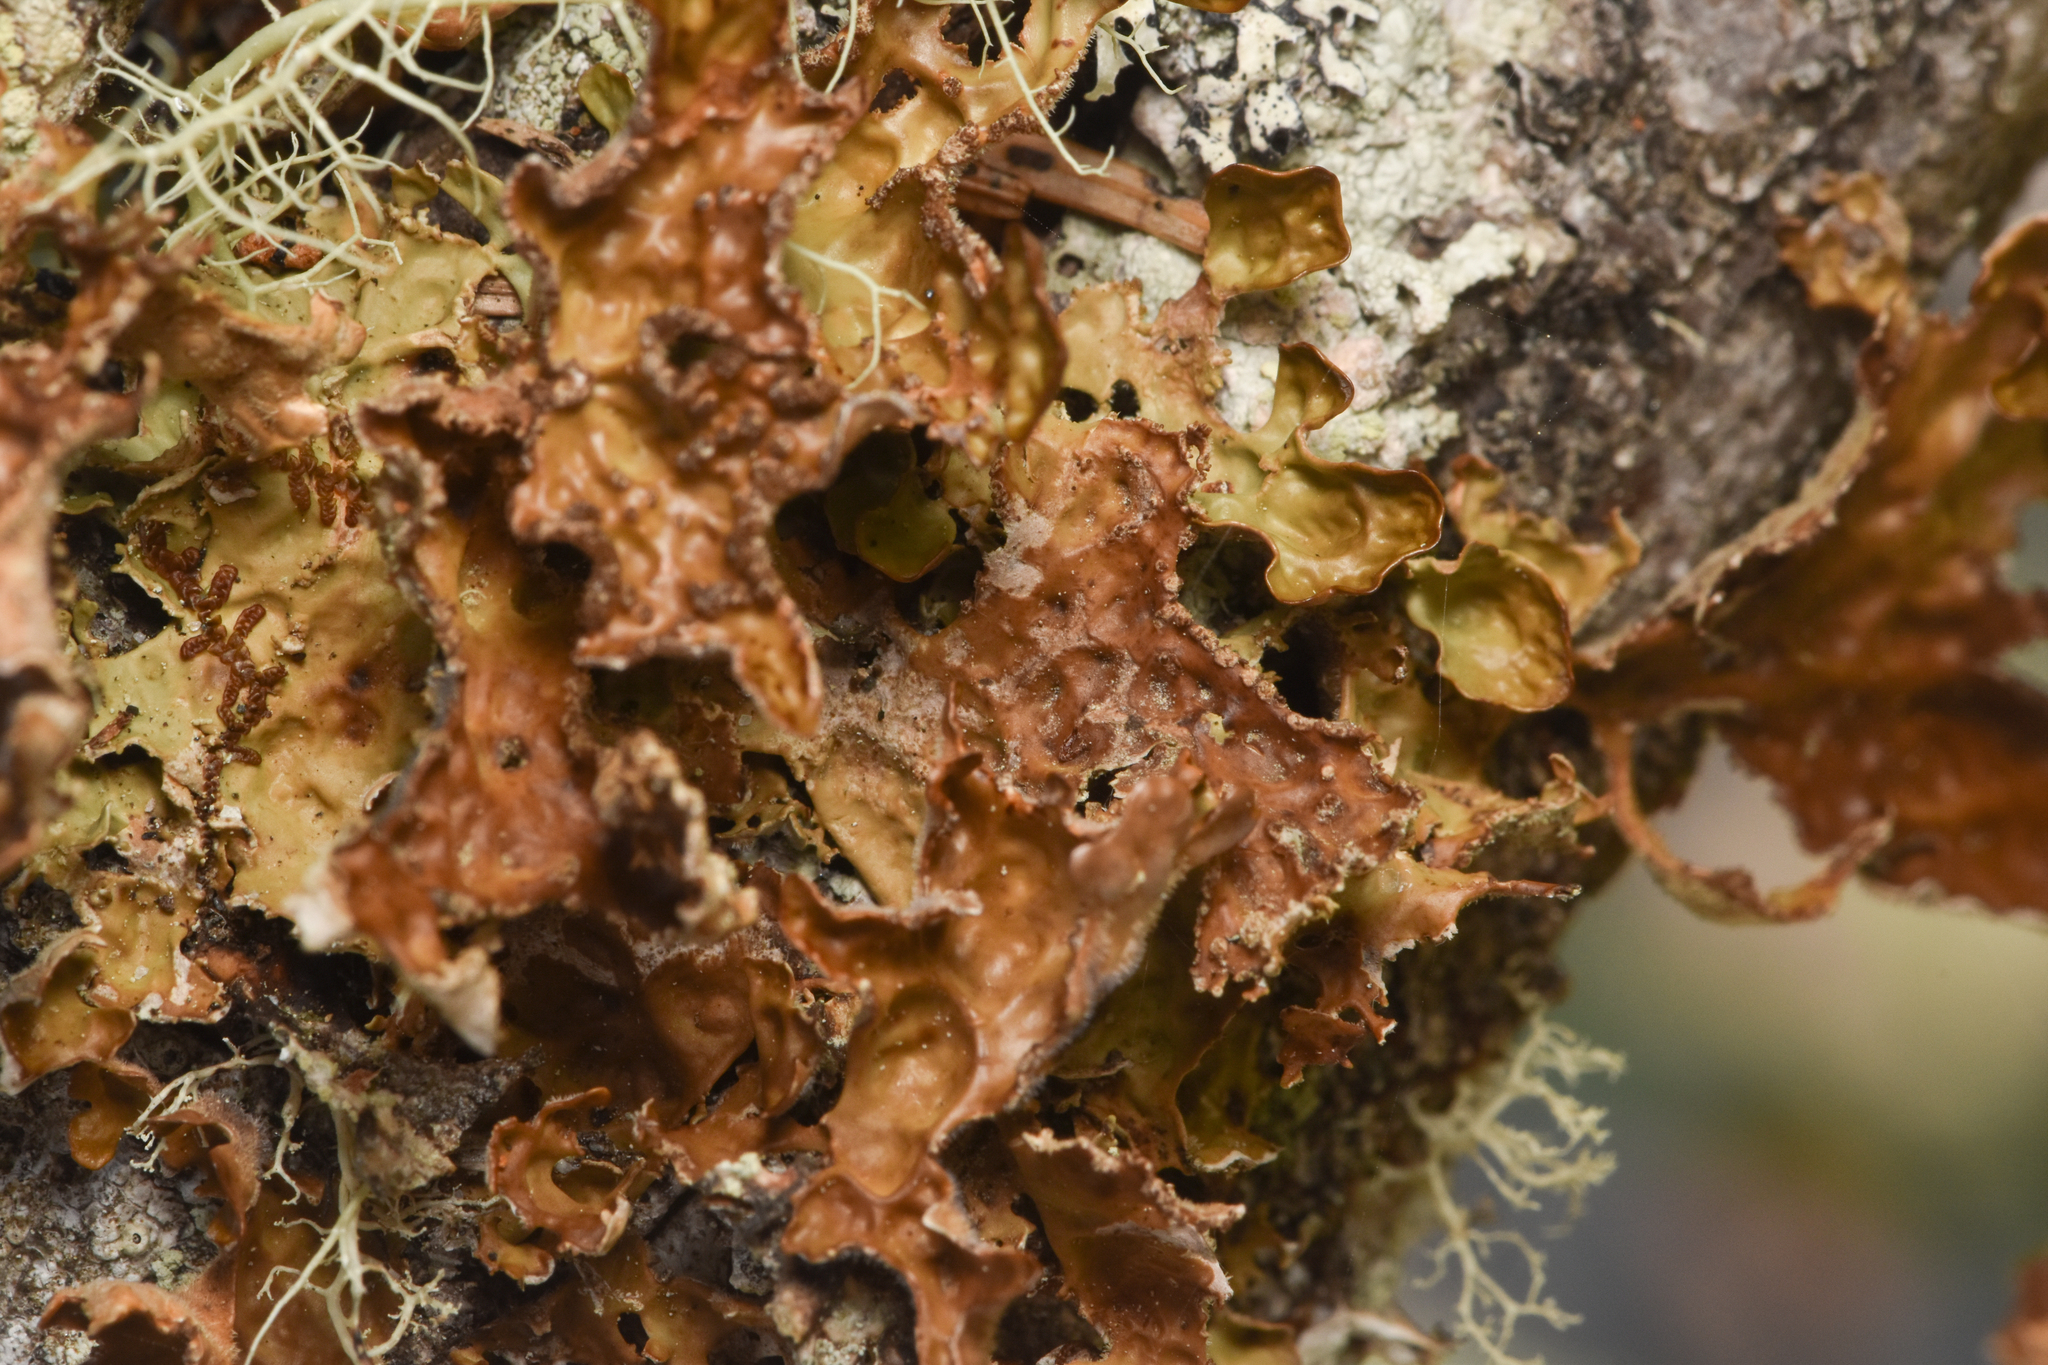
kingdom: Fungi
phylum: Ascomycota
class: Lecanoromycetes
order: Peltigerales
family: Lobariaceae
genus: Lobaria
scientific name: Lobaria pulmonaria
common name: Lungwort
